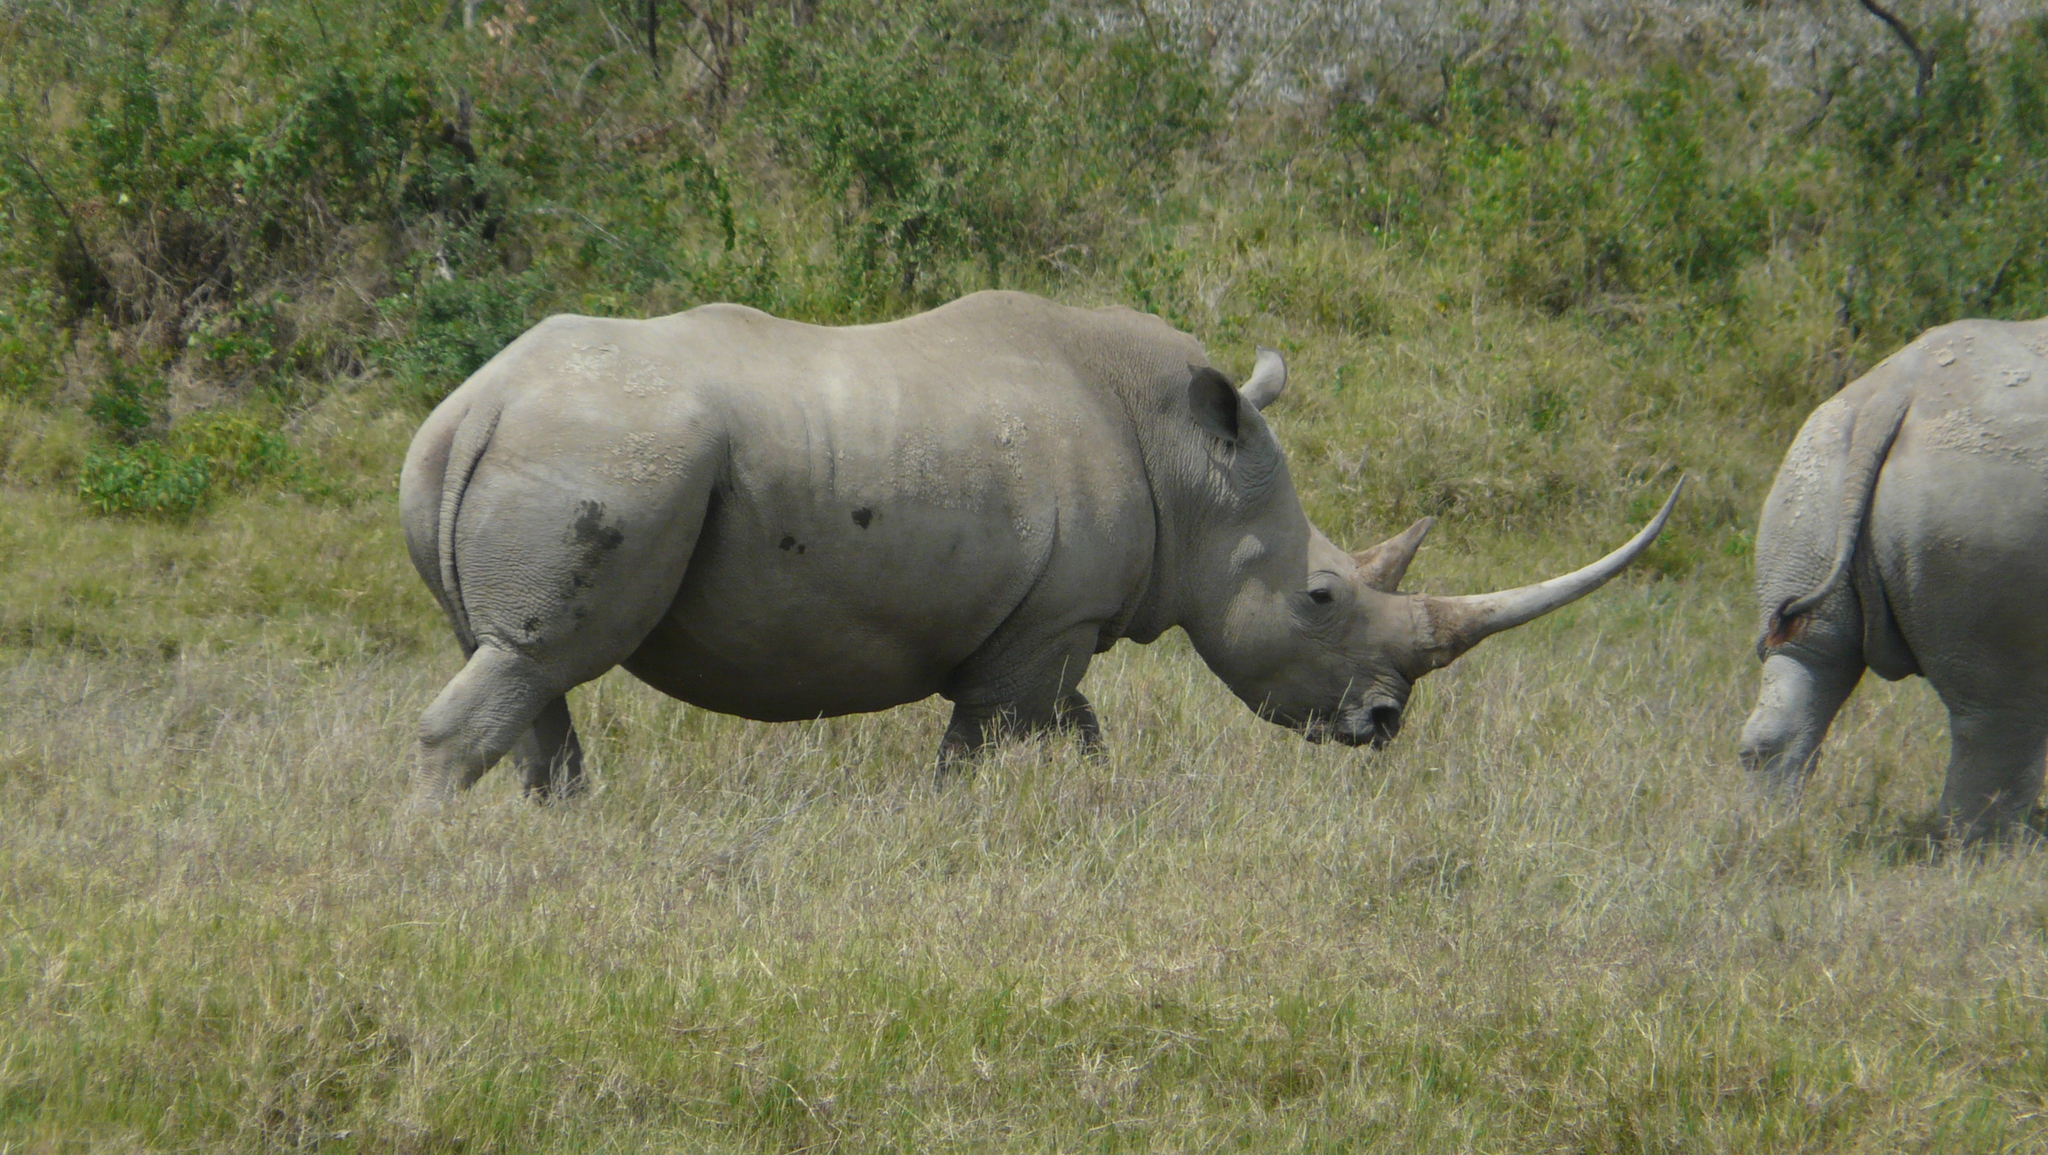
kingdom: Animalia
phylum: Chordata
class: Mammalia
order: Perissodactyla
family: Rhinocerotidae
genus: Ceratotherium
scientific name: Ceratotherium simum
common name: White rhinoceros
